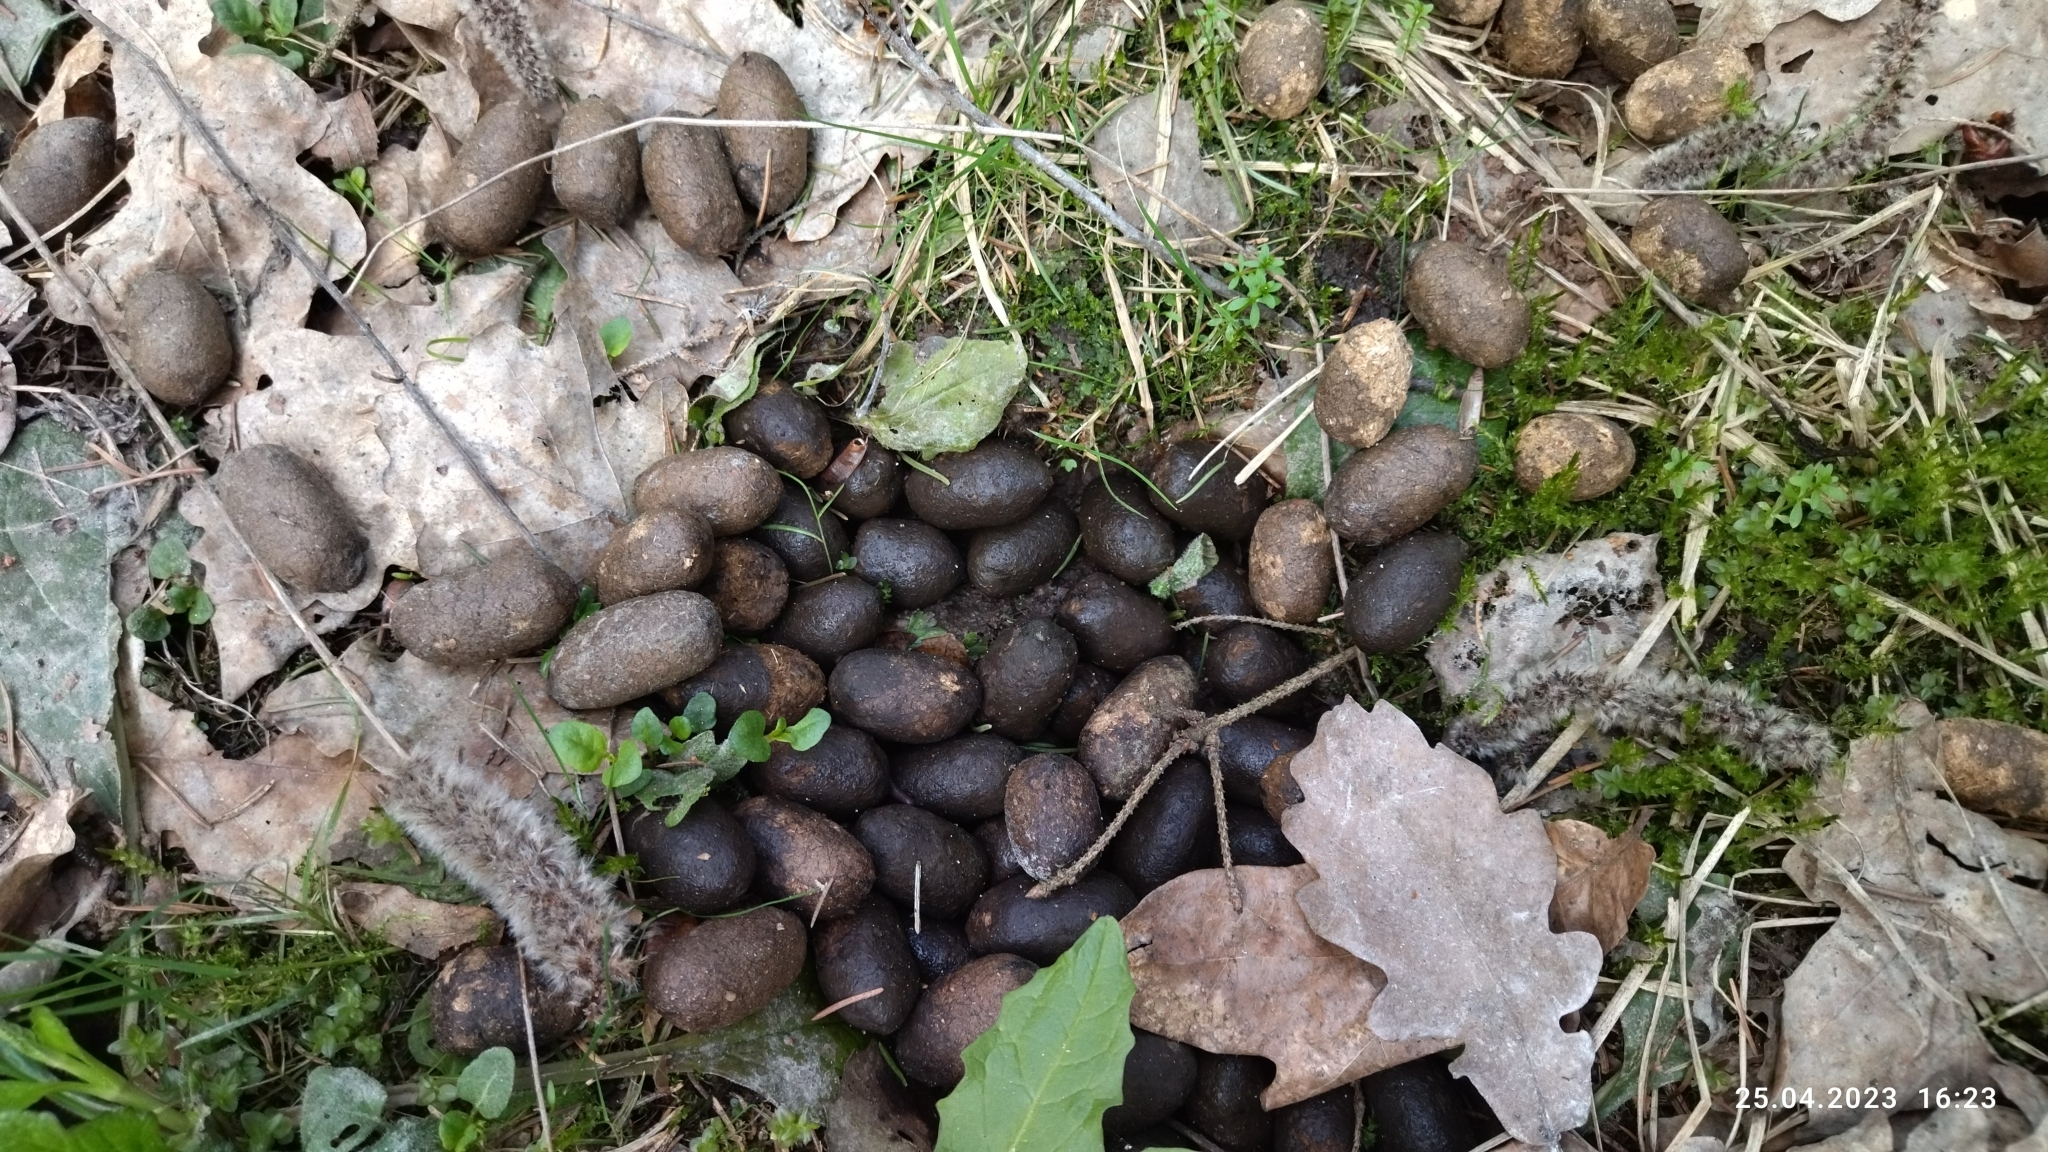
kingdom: Animalia
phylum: Chordata
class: Mammalia
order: Artiodactyla
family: Cervidae
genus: Alces
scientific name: Alces alces
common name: Moose
